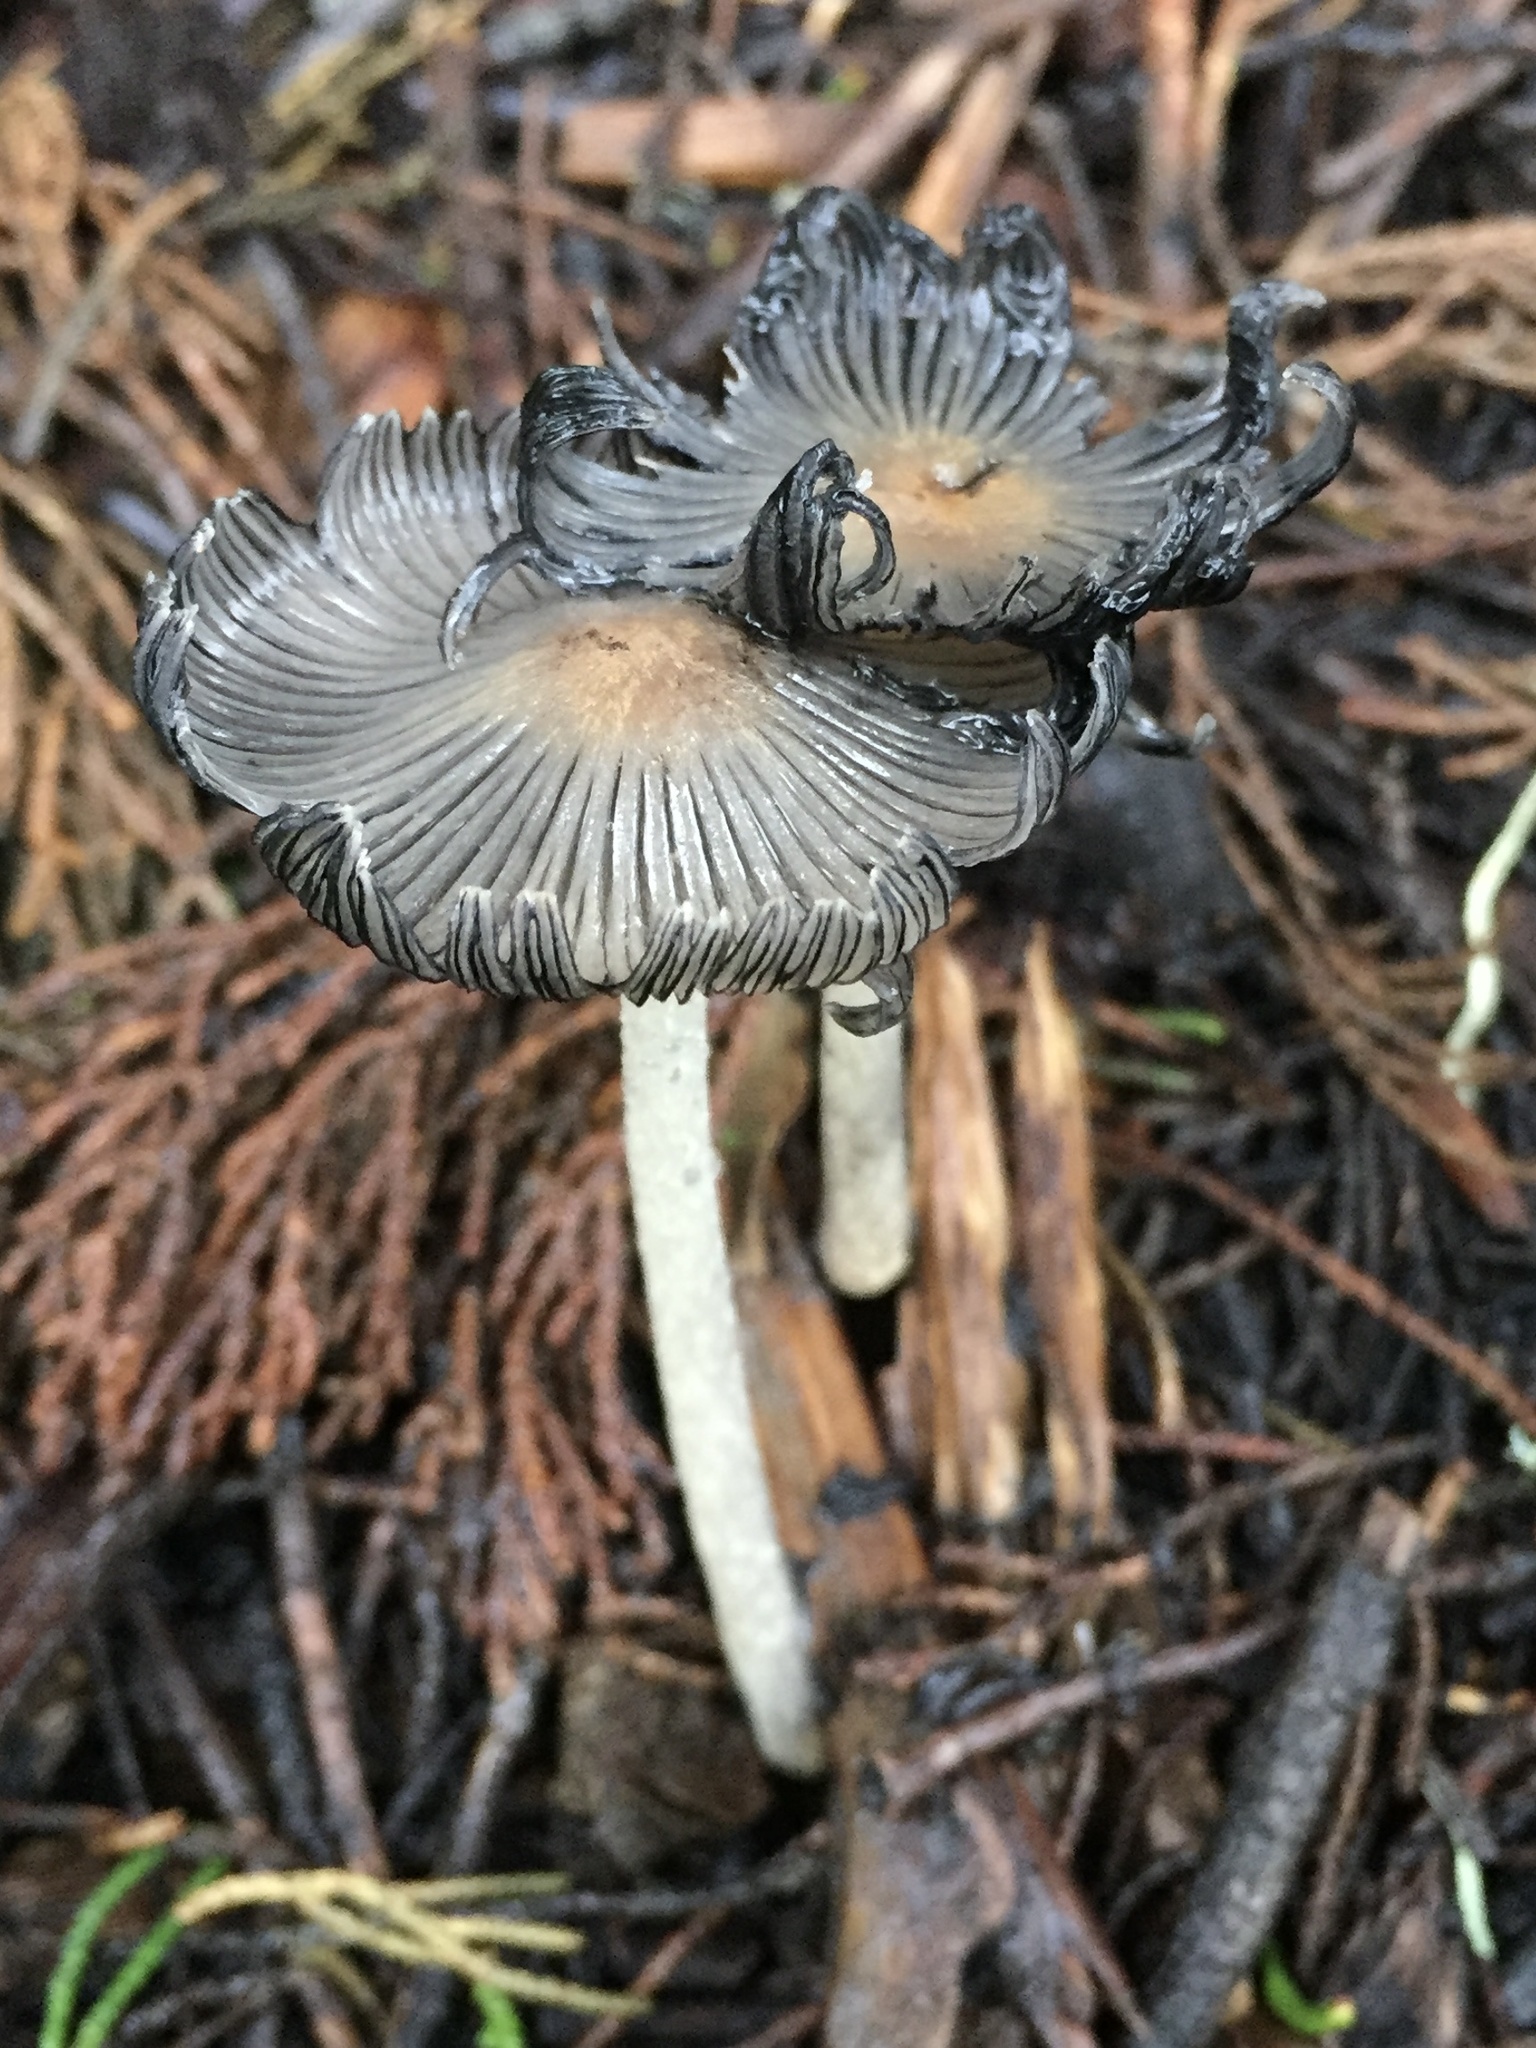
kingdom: Fungi
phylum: Basidiomycota
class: Agaricomycetes
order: Agaricales
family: Psathyrellaceae
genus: Coprinopsis
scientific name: Coprinopsis lagopus
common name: Hare'sfoot inkcap
